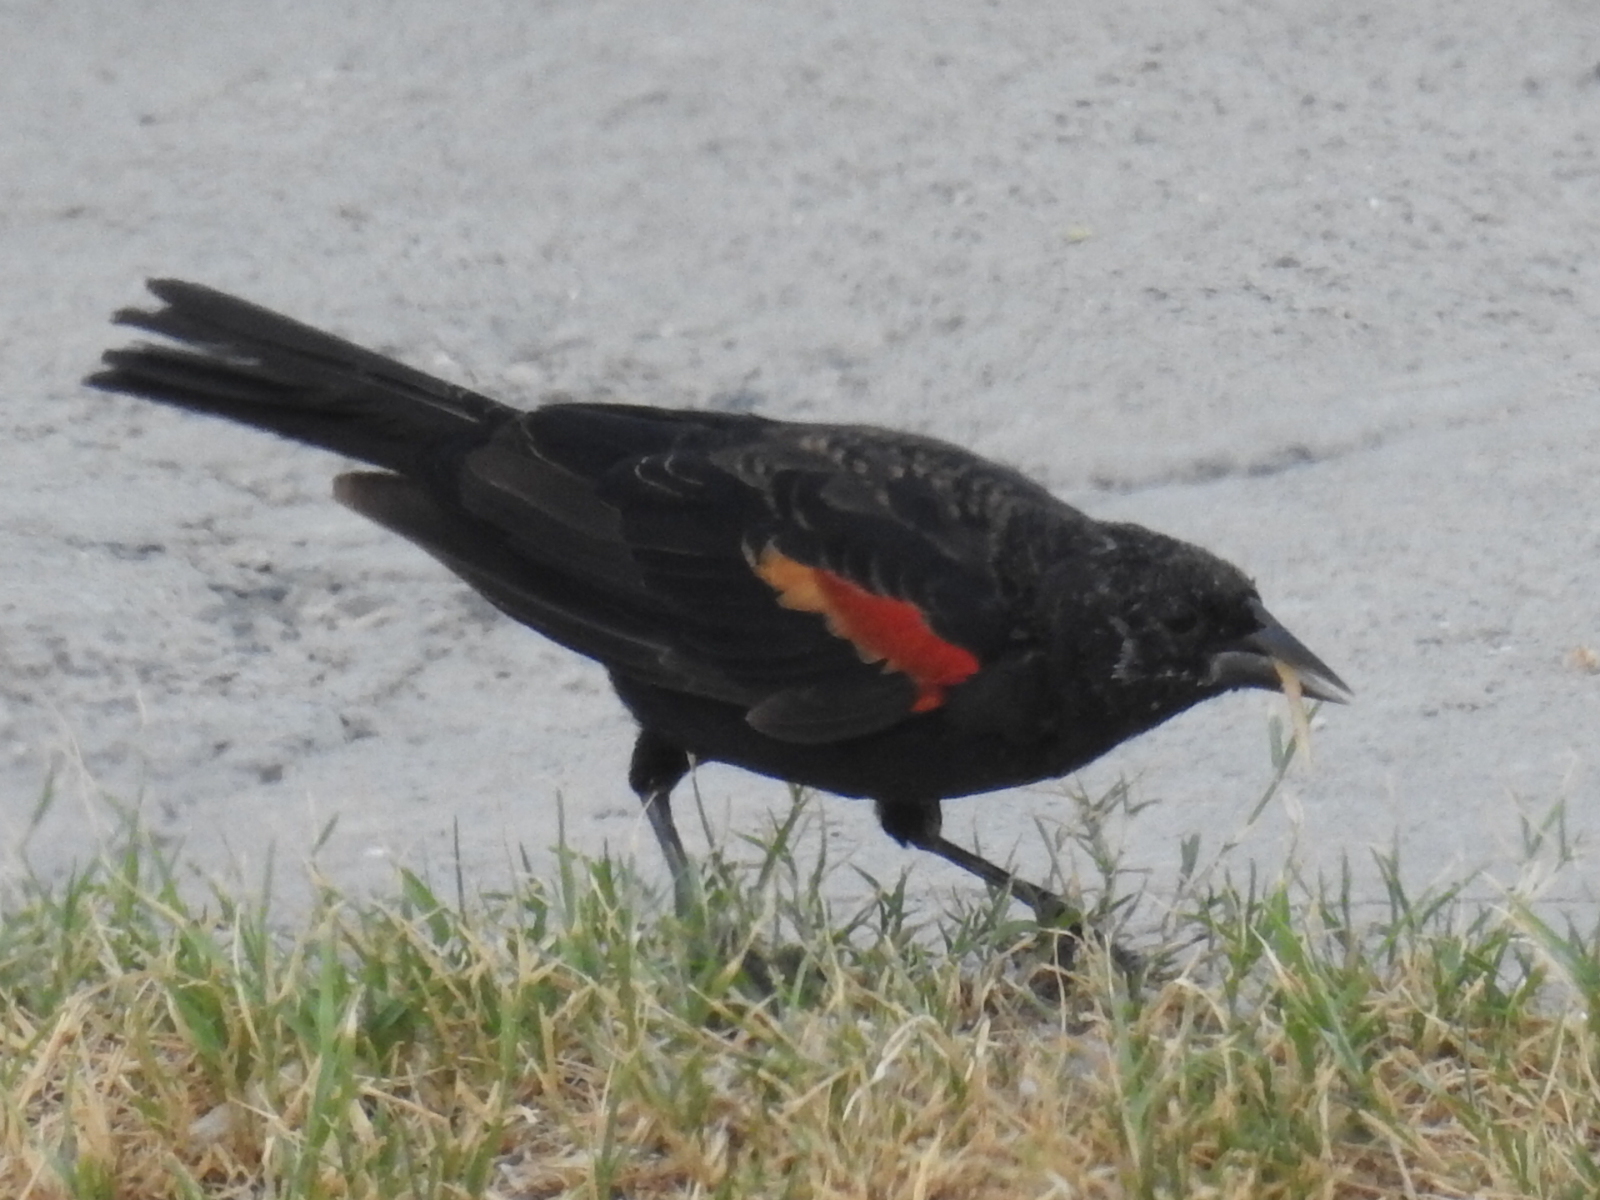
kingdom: Animalia
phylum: Chordata
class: Aves
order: Passeriformes
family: Icteridae
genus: Agelaius
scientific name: Agelaius phoeniceus
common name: Red-winged blackbird
